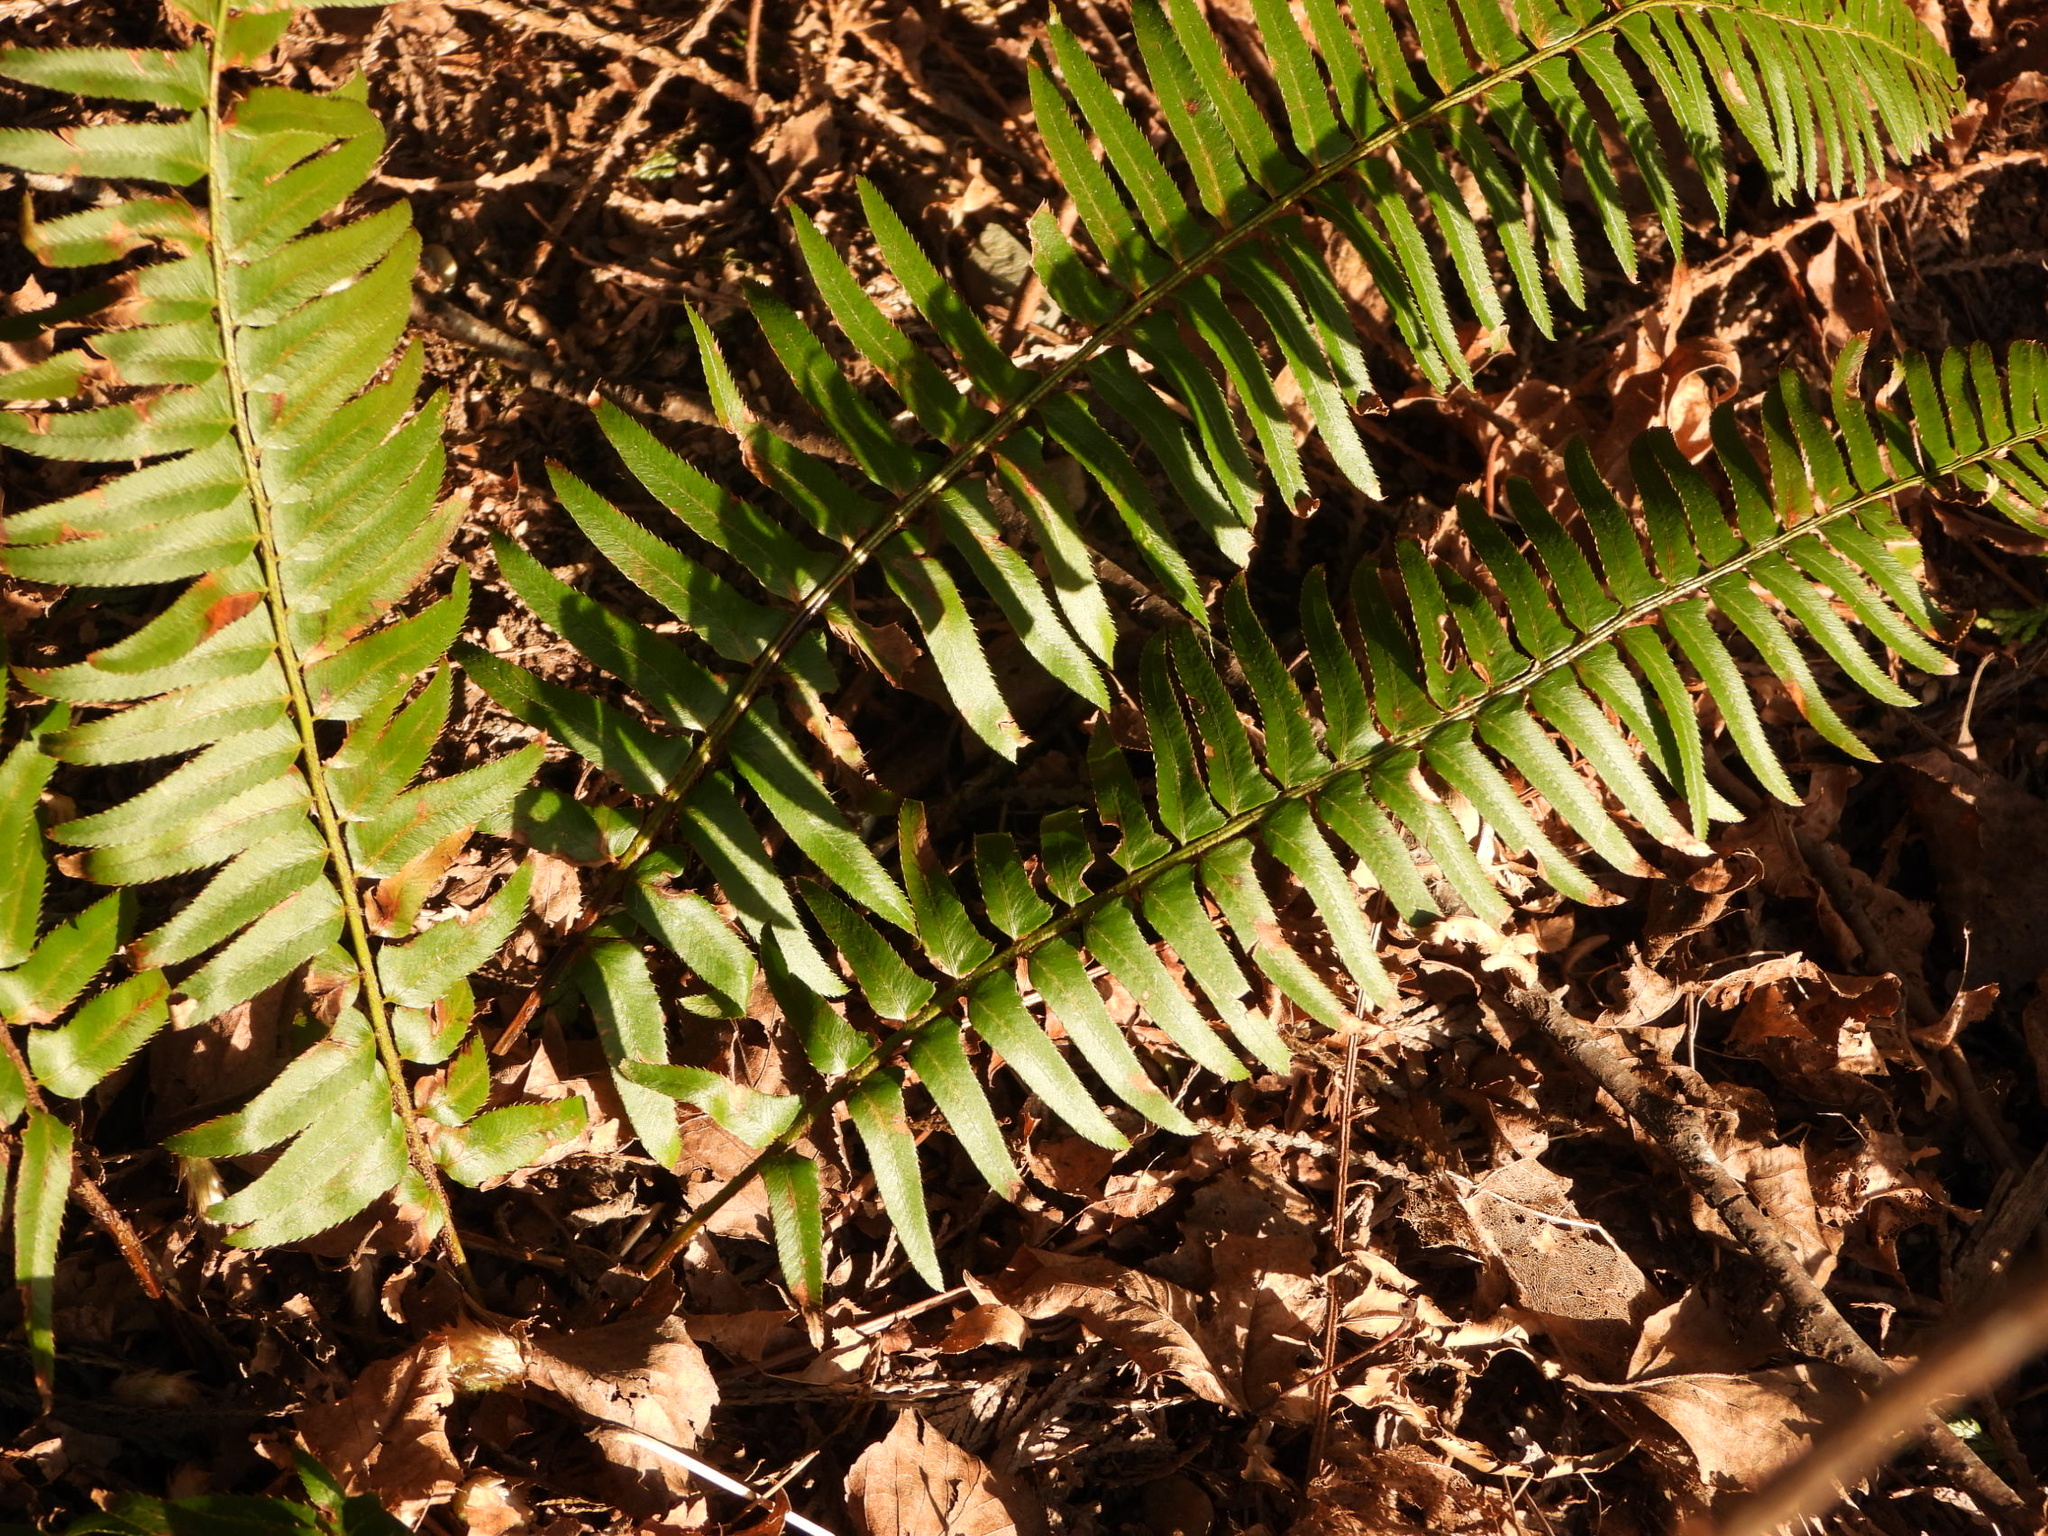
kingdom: Plantae
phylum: Tracheophyta
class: Polypodiopsida
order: Polypodiales
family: Dryopteridaceae
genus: Polystichum
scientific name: Polystichum munitum
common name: Western sword-fern
